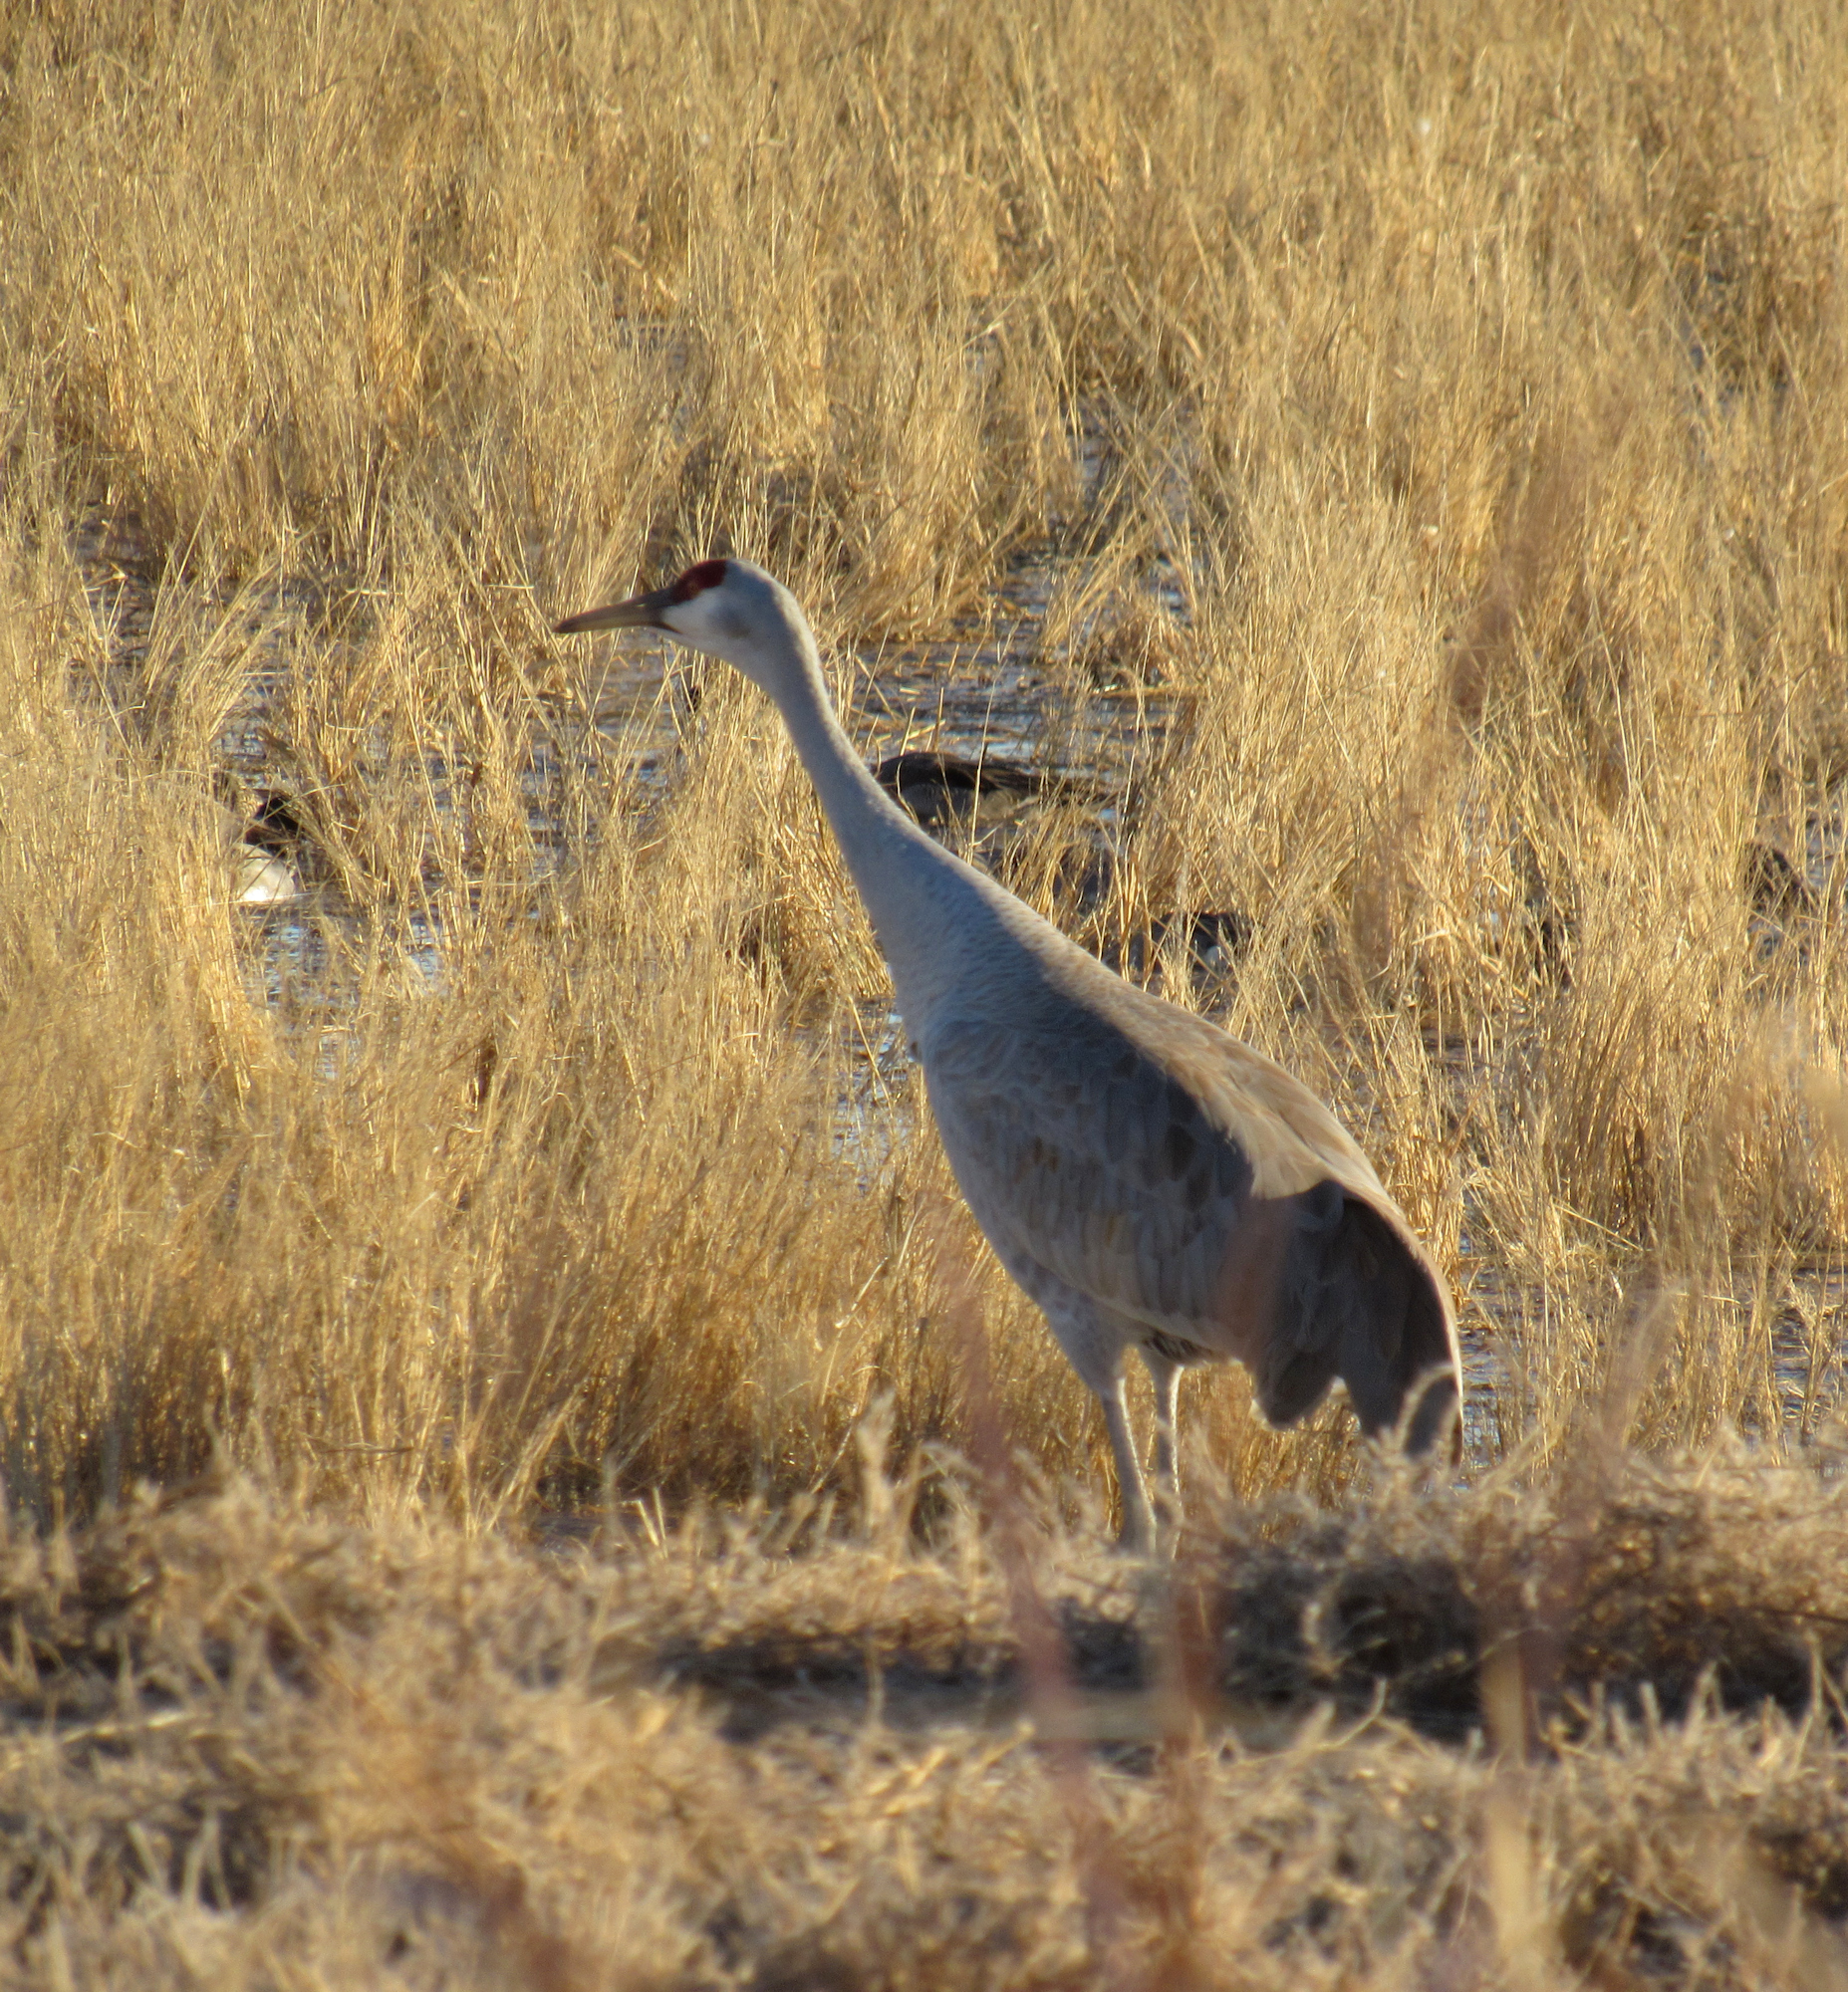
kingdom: Animalia
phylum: Chordata
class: Aves
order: Gruiformes
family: Gruidae
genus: Grus
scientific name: Grus canadensis
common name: Sandhill crane
